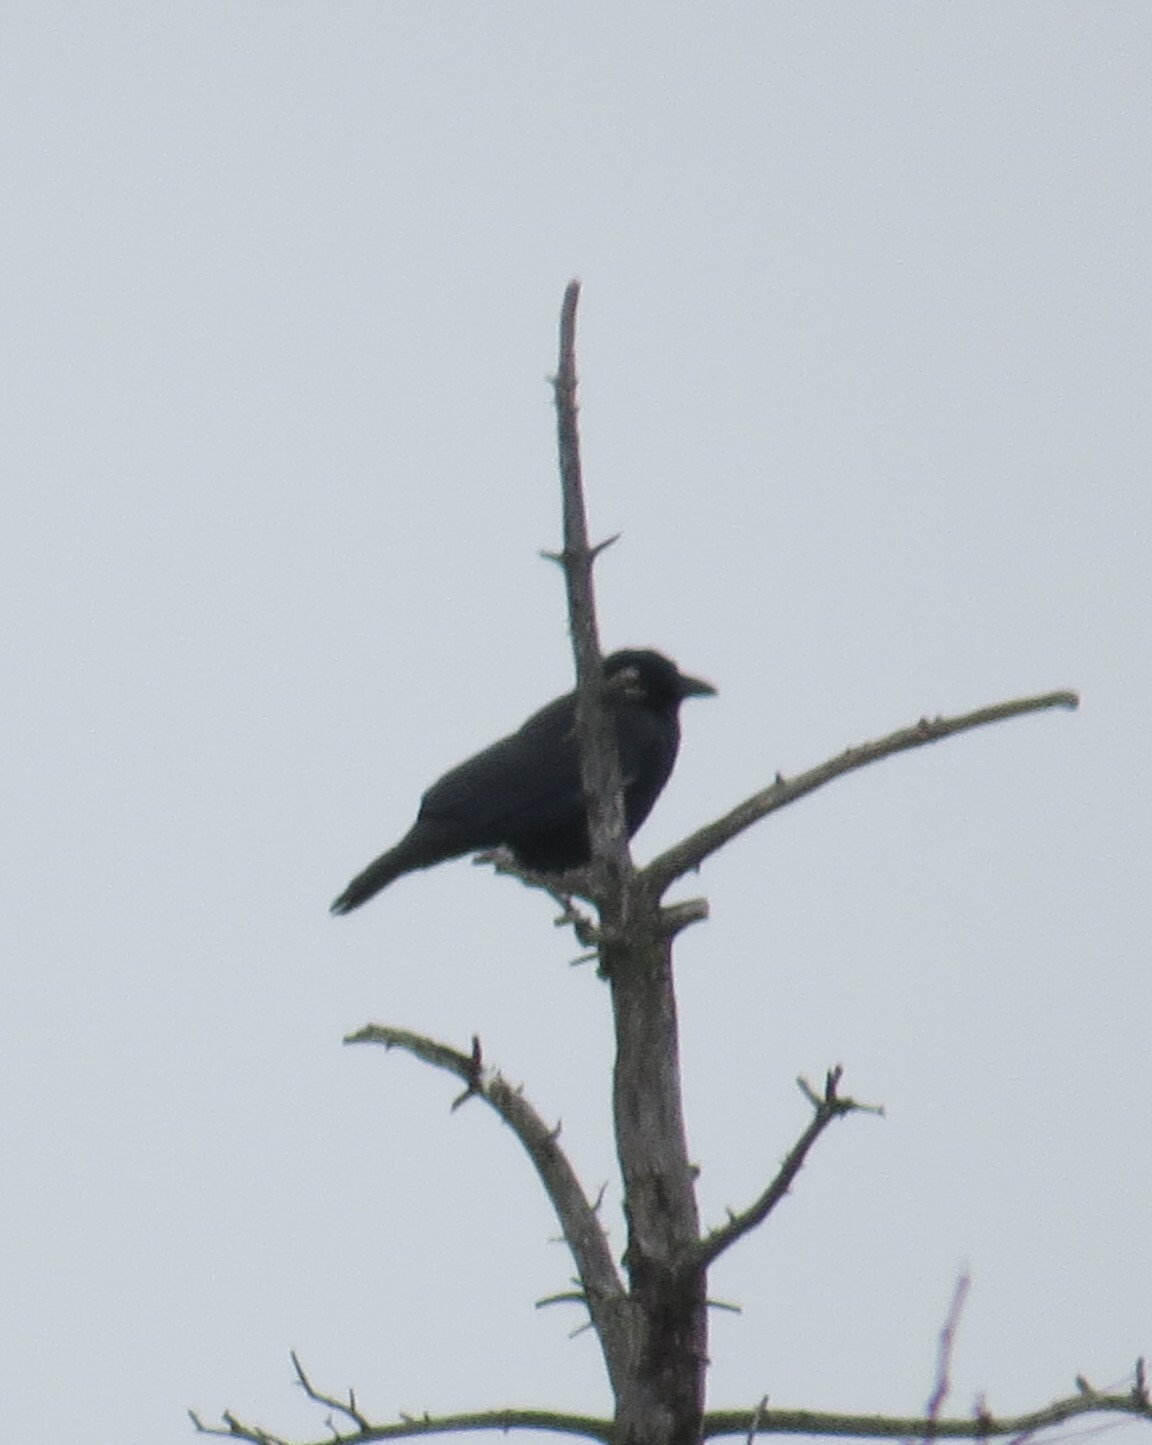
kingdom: Animalia
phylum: Chordata
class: Aves
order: Passeriformes
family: Corvidae
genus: Corvus
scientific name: Corvus brachyrhynchos
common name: American crow
